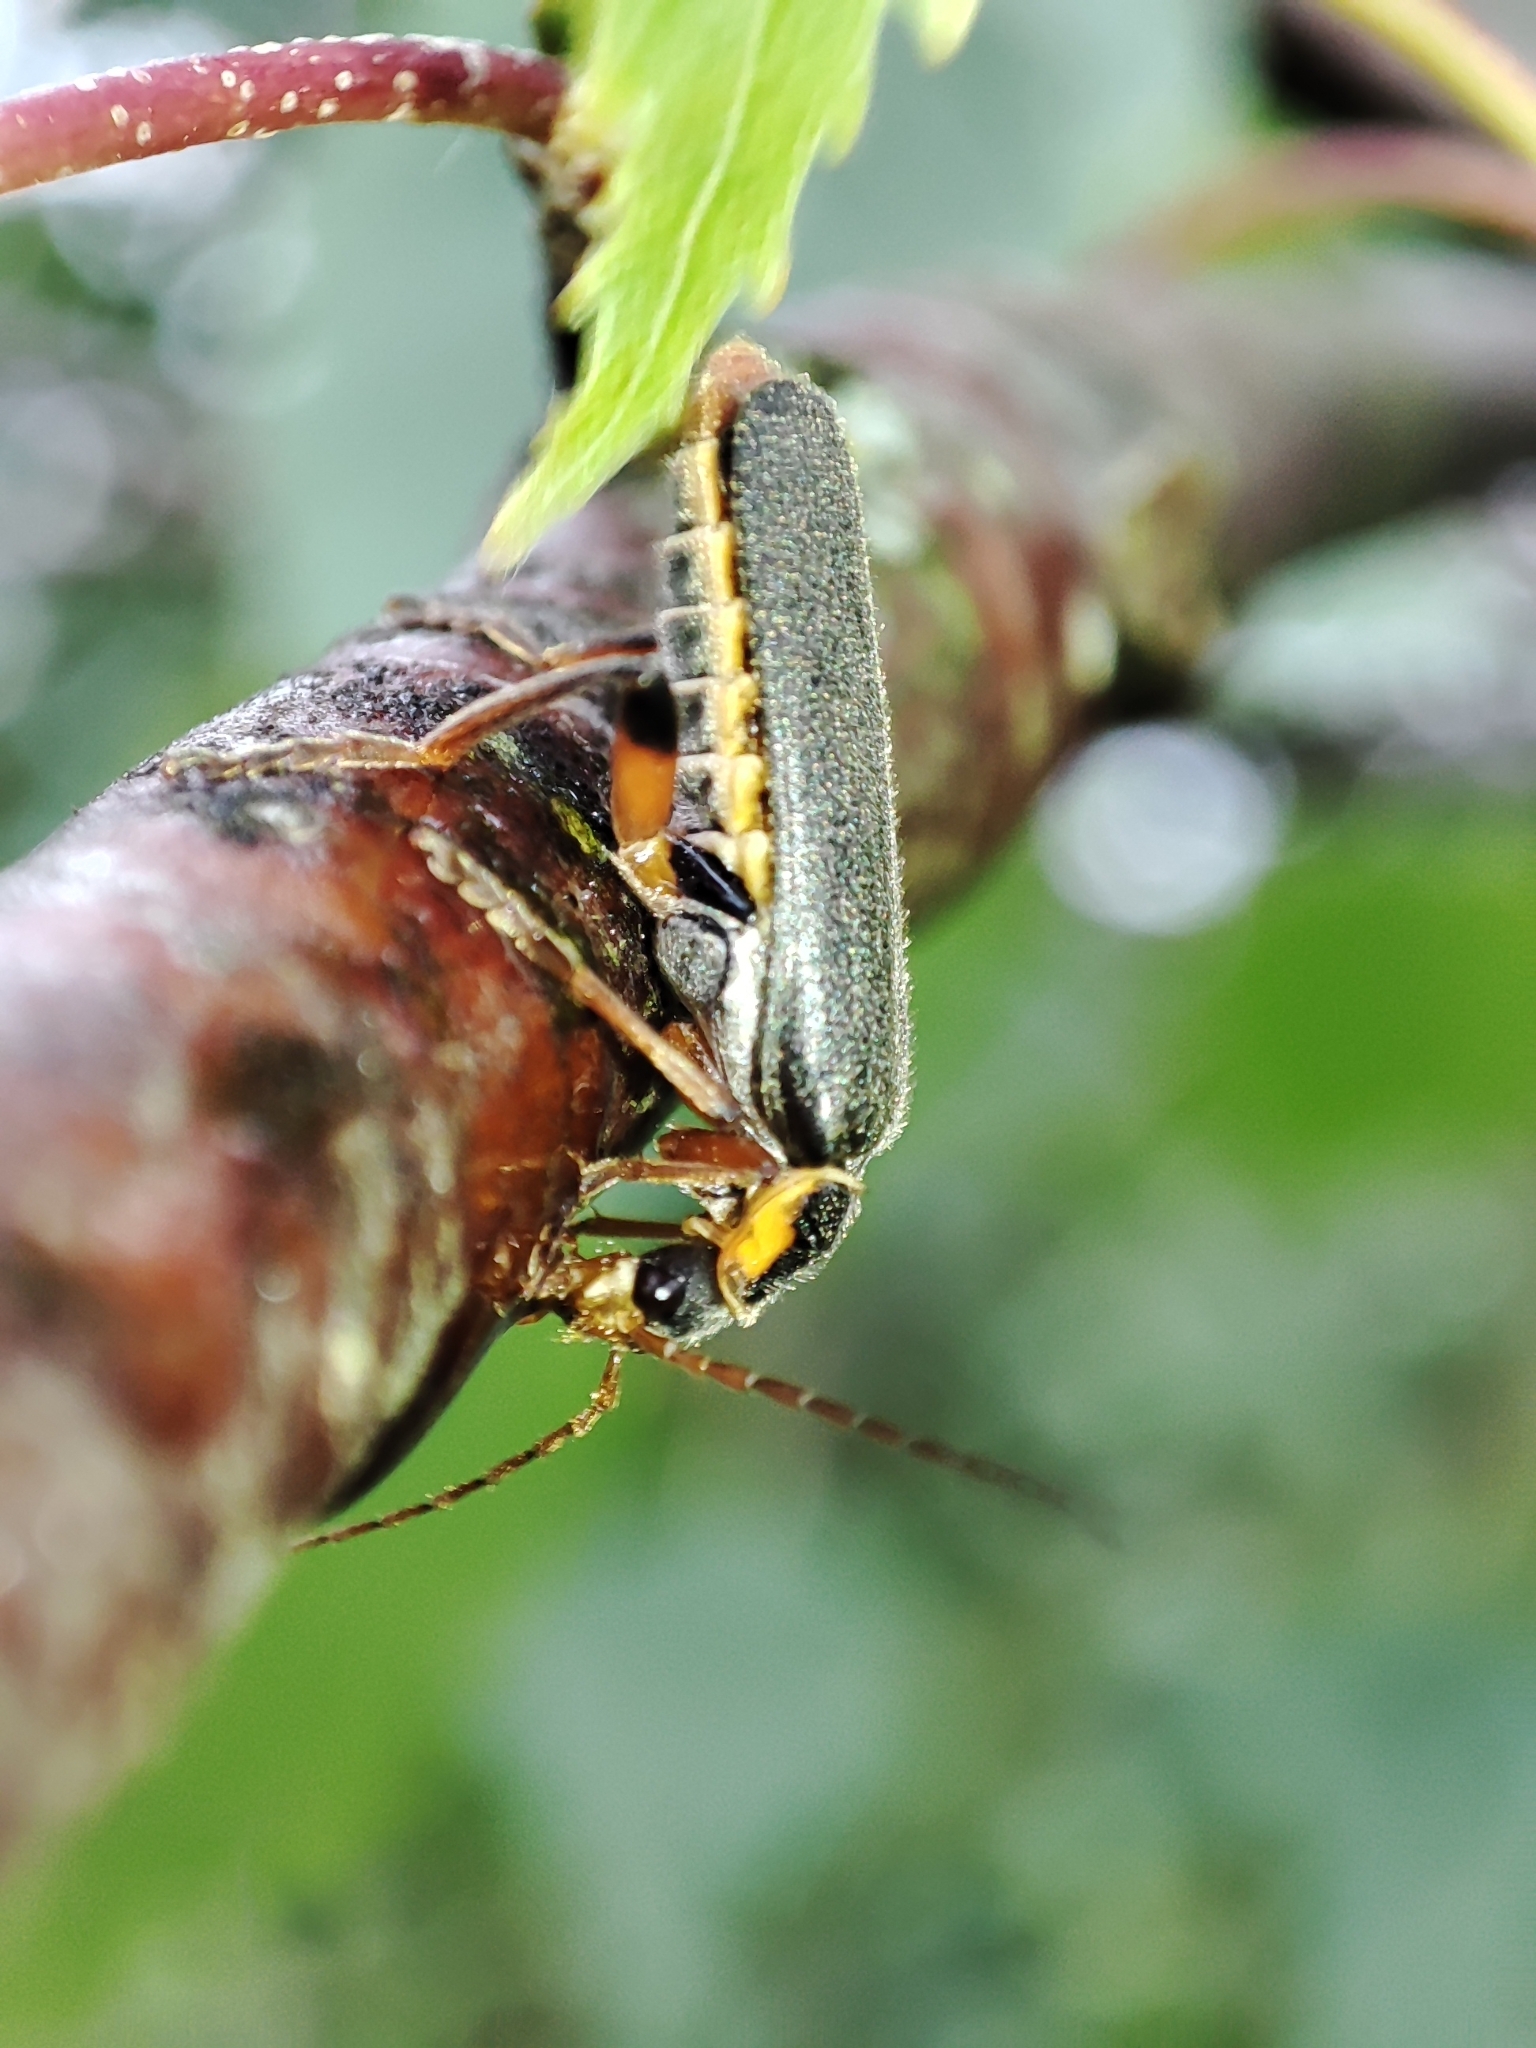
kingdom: Animalia
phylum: Arthropoda
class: Insecta
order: Coleoptera
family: Cantharidae
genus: Cantharis
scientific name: Cantharis nigricans
